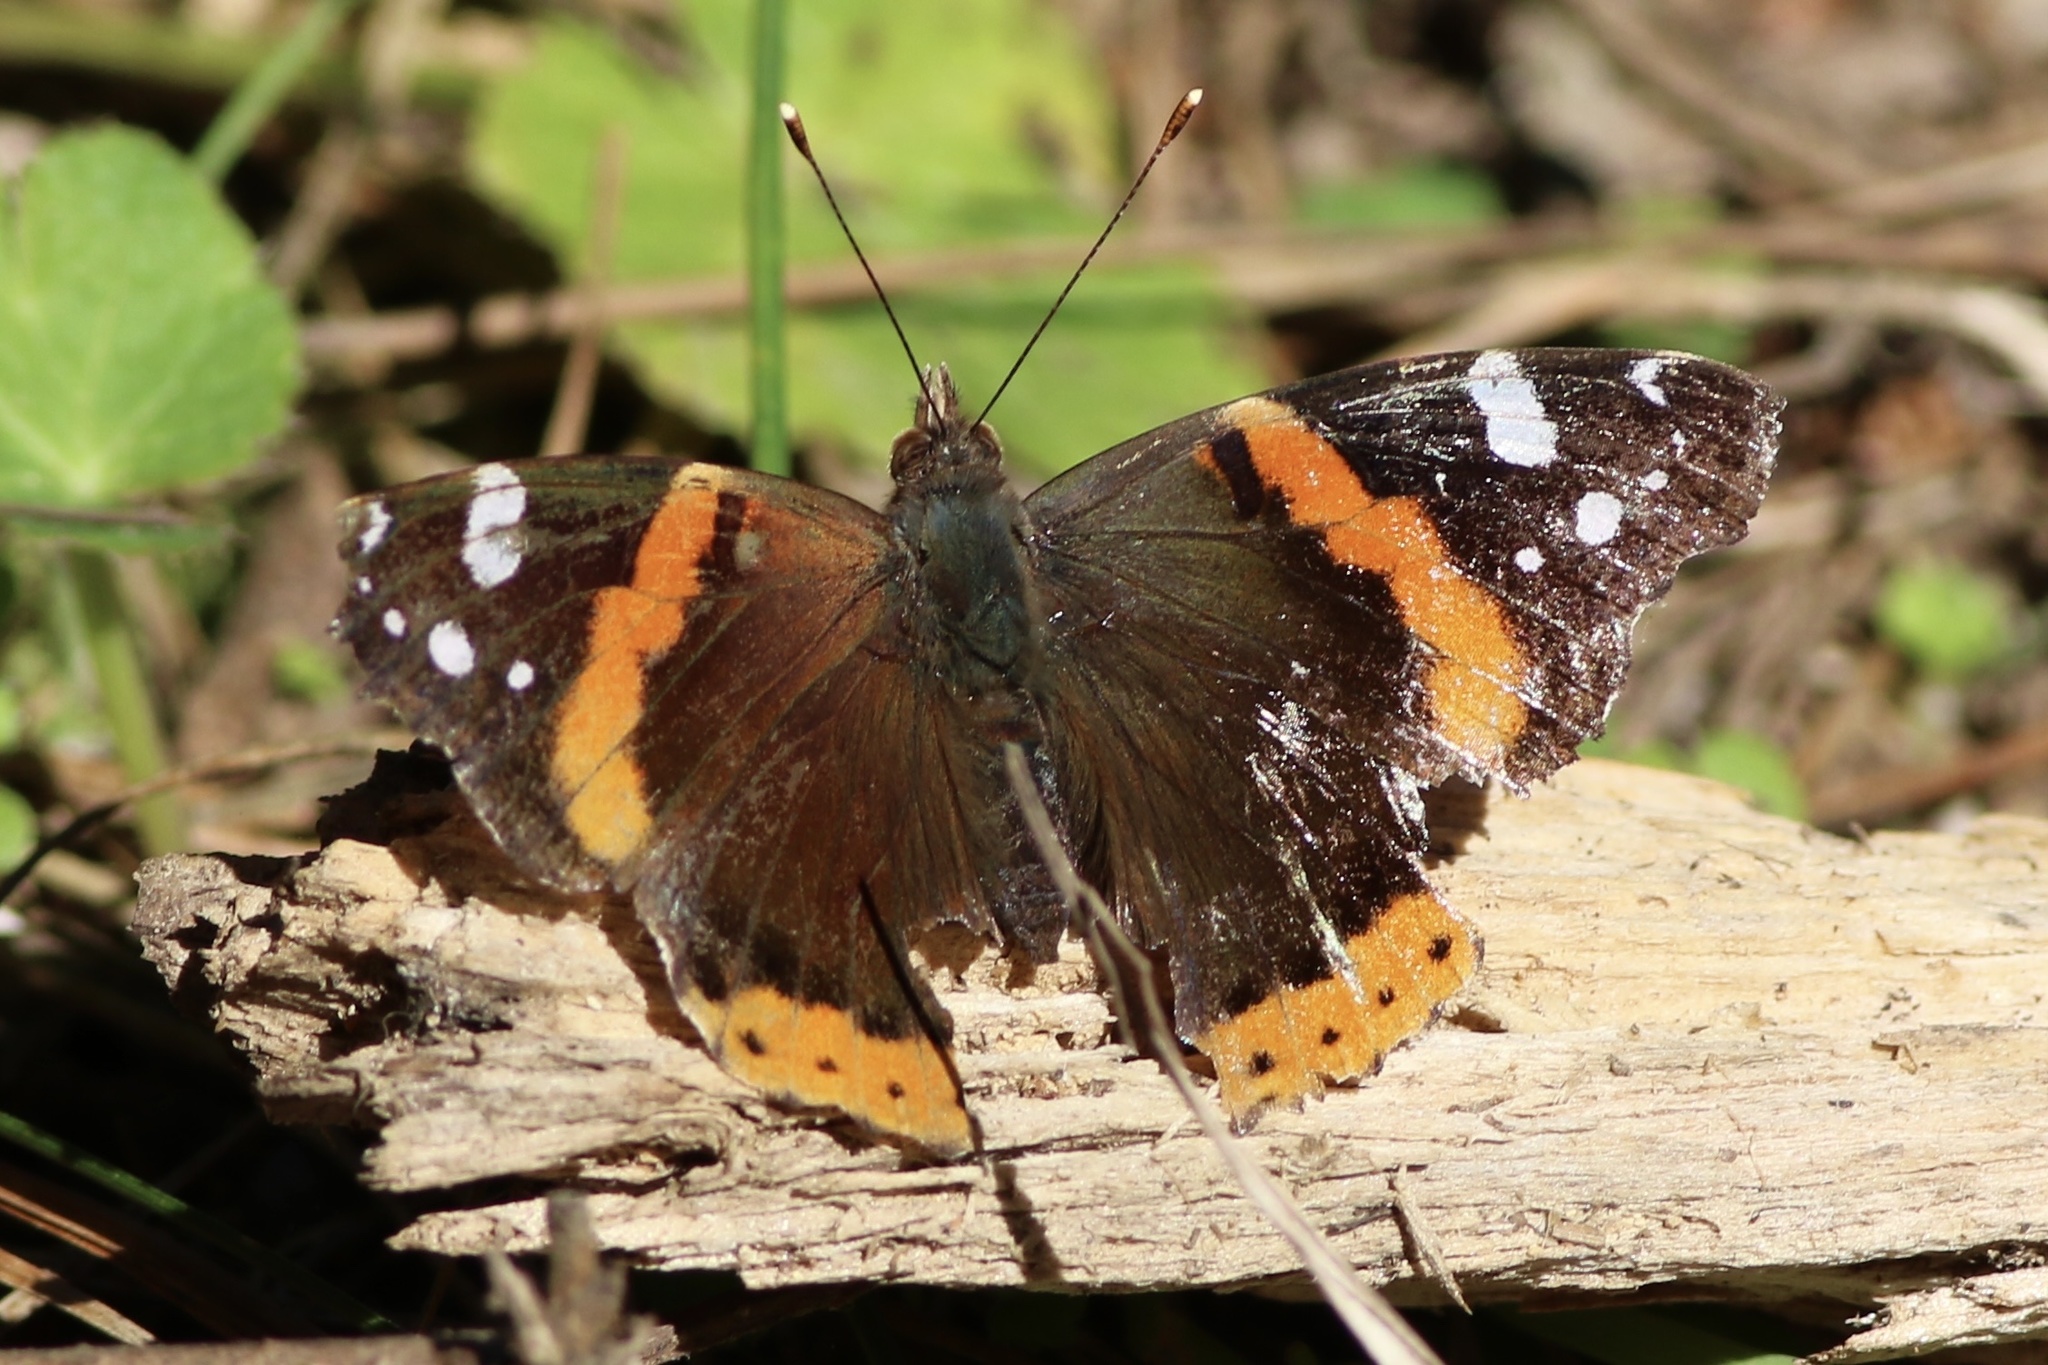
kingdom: Animalia
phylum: Arthropoda
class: Insecta
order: Lepidoptera
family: Nymphalidae
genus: Vanessa
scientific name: Vanessa atalanta
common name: Red admiral
